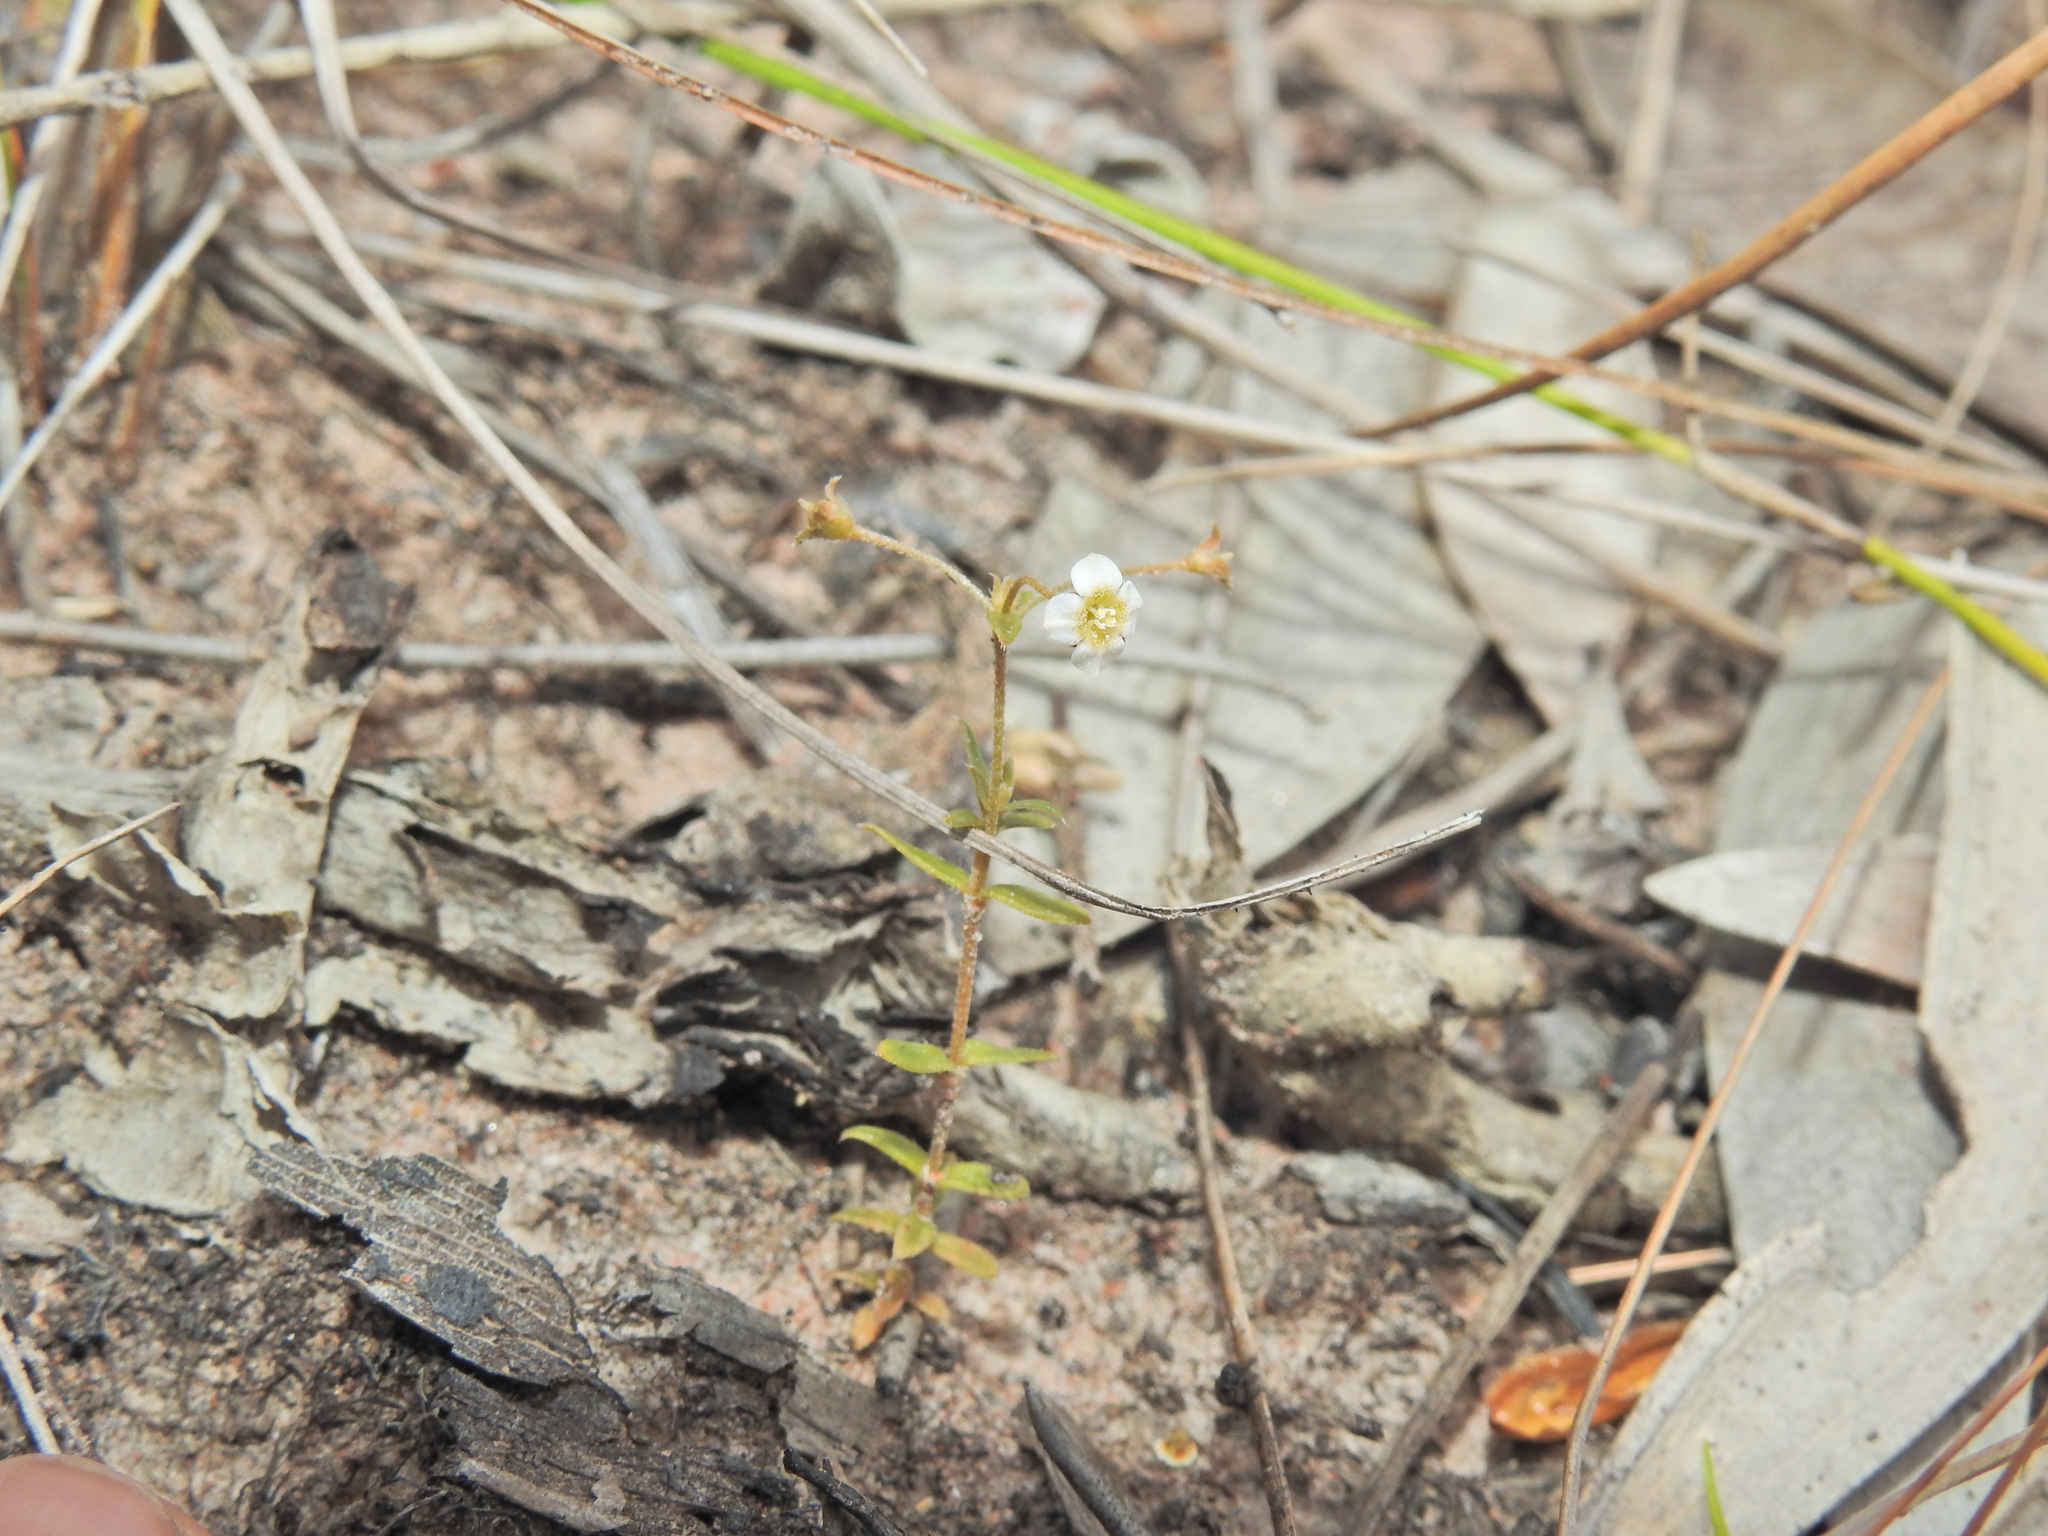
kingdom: Plantae
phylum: Tracheophyta
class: Magnoliopsida
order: Gentianales
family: Loganiaceae
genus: Mitrasacme
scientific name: Mitrasacme paludosa
